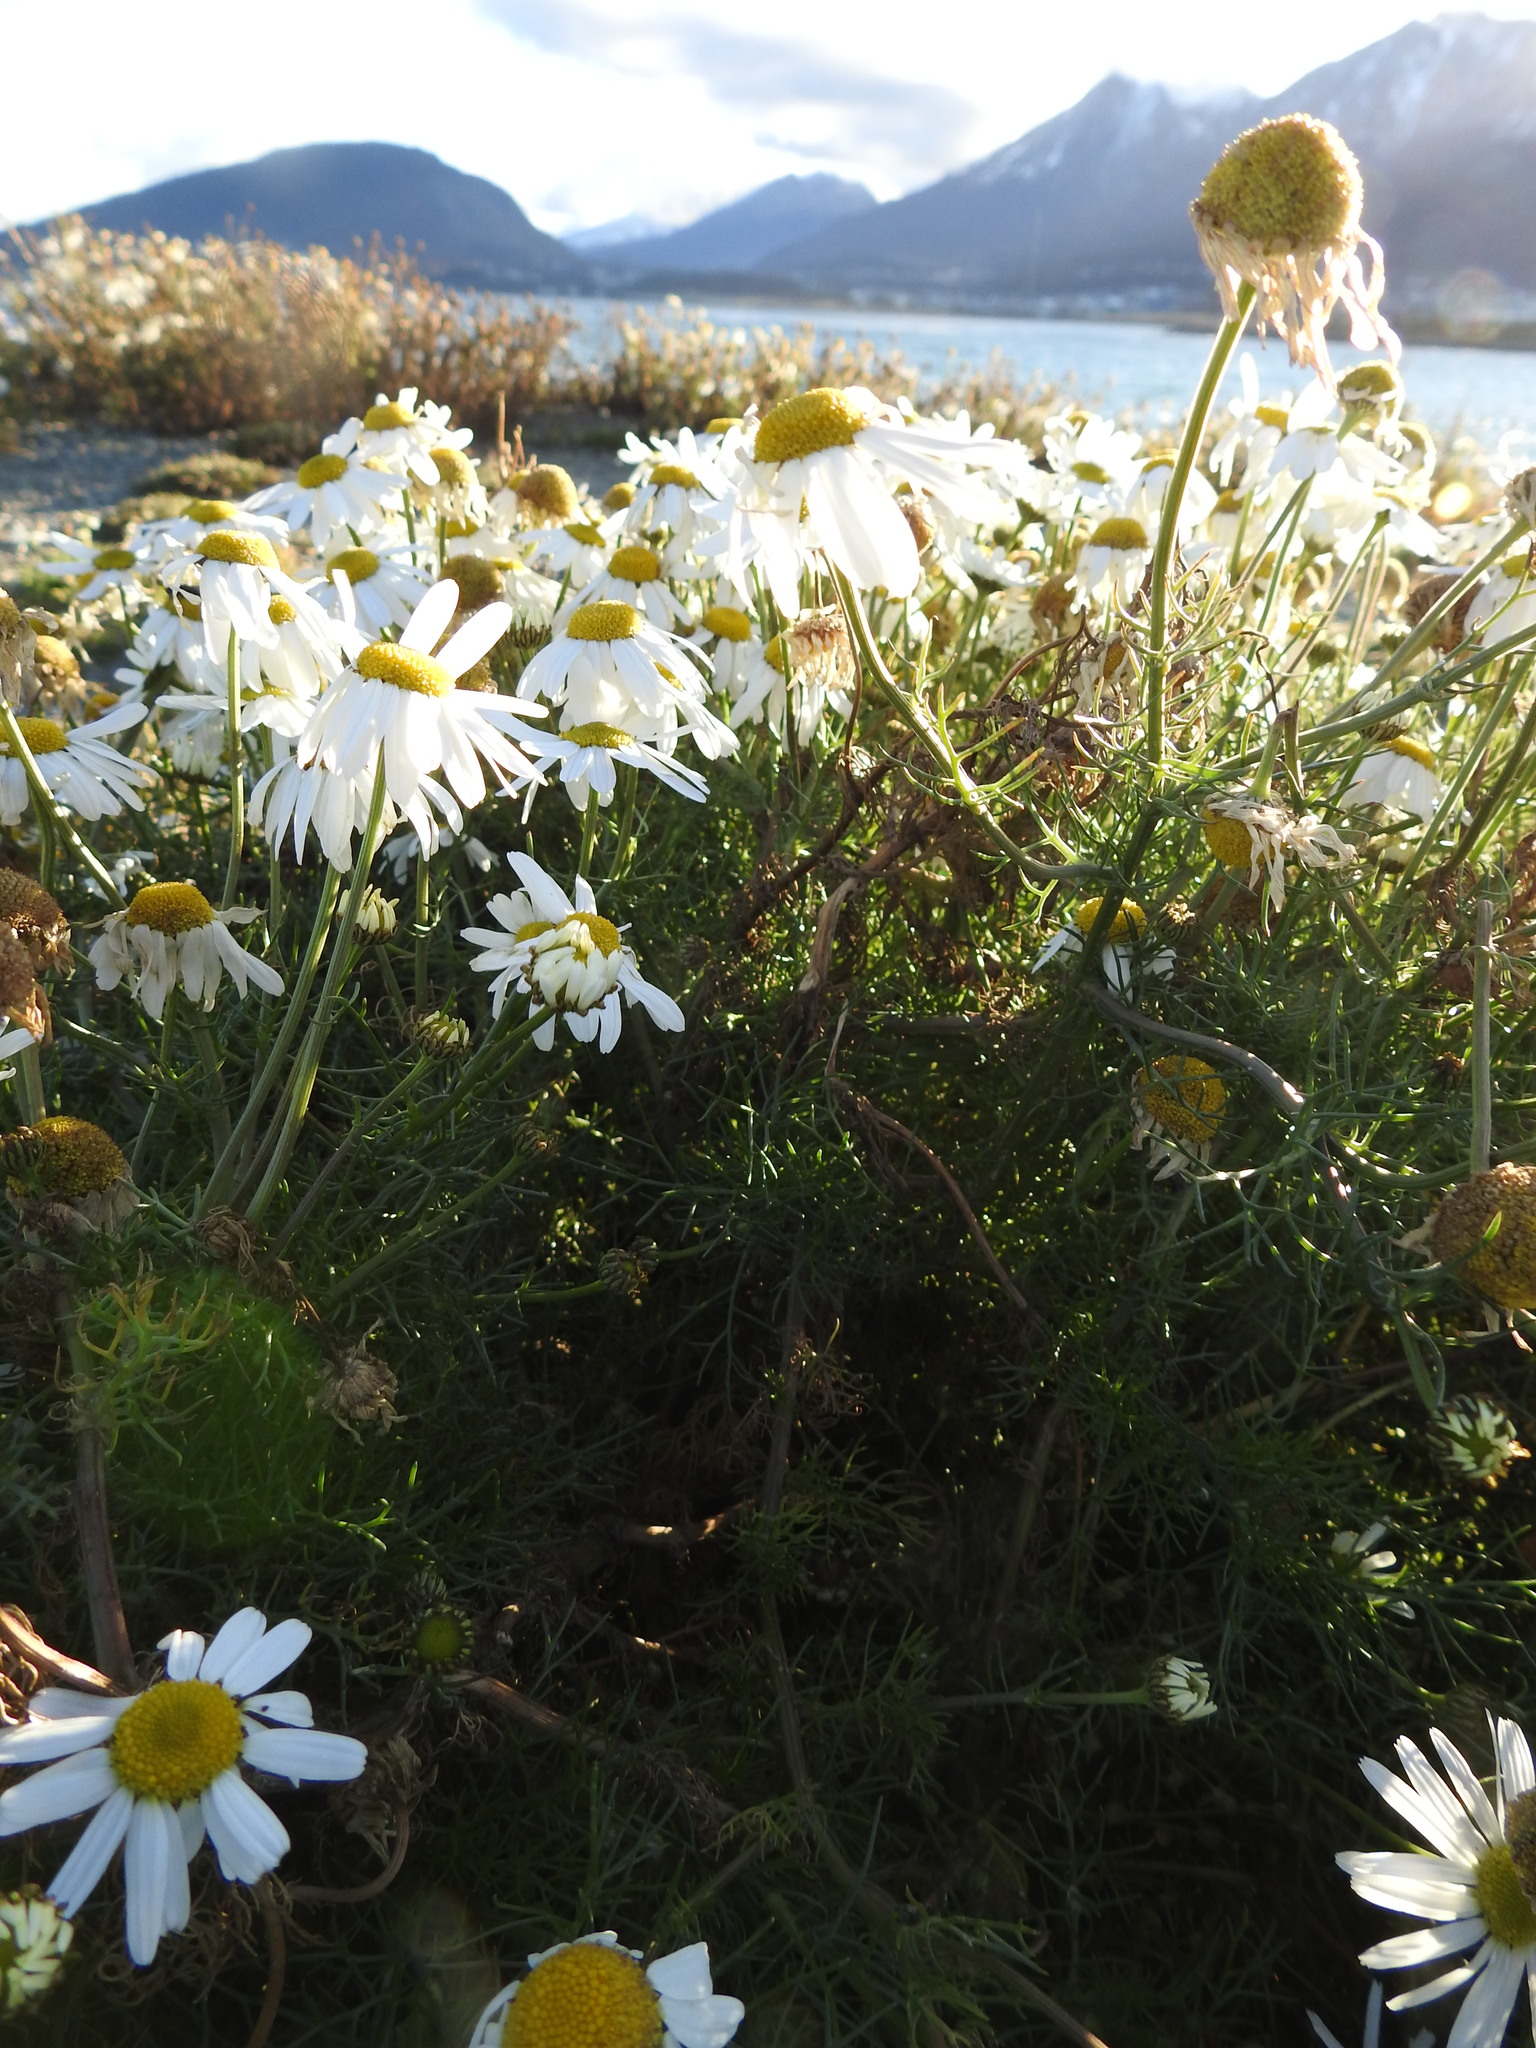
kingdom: Plantae
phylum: Tracheophyta
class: Magnoliopsida
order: Asterales
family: Asteraceae
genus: Tripleurospermum
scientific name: Tripleurospermum inodorum
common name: Scentless mayweed
